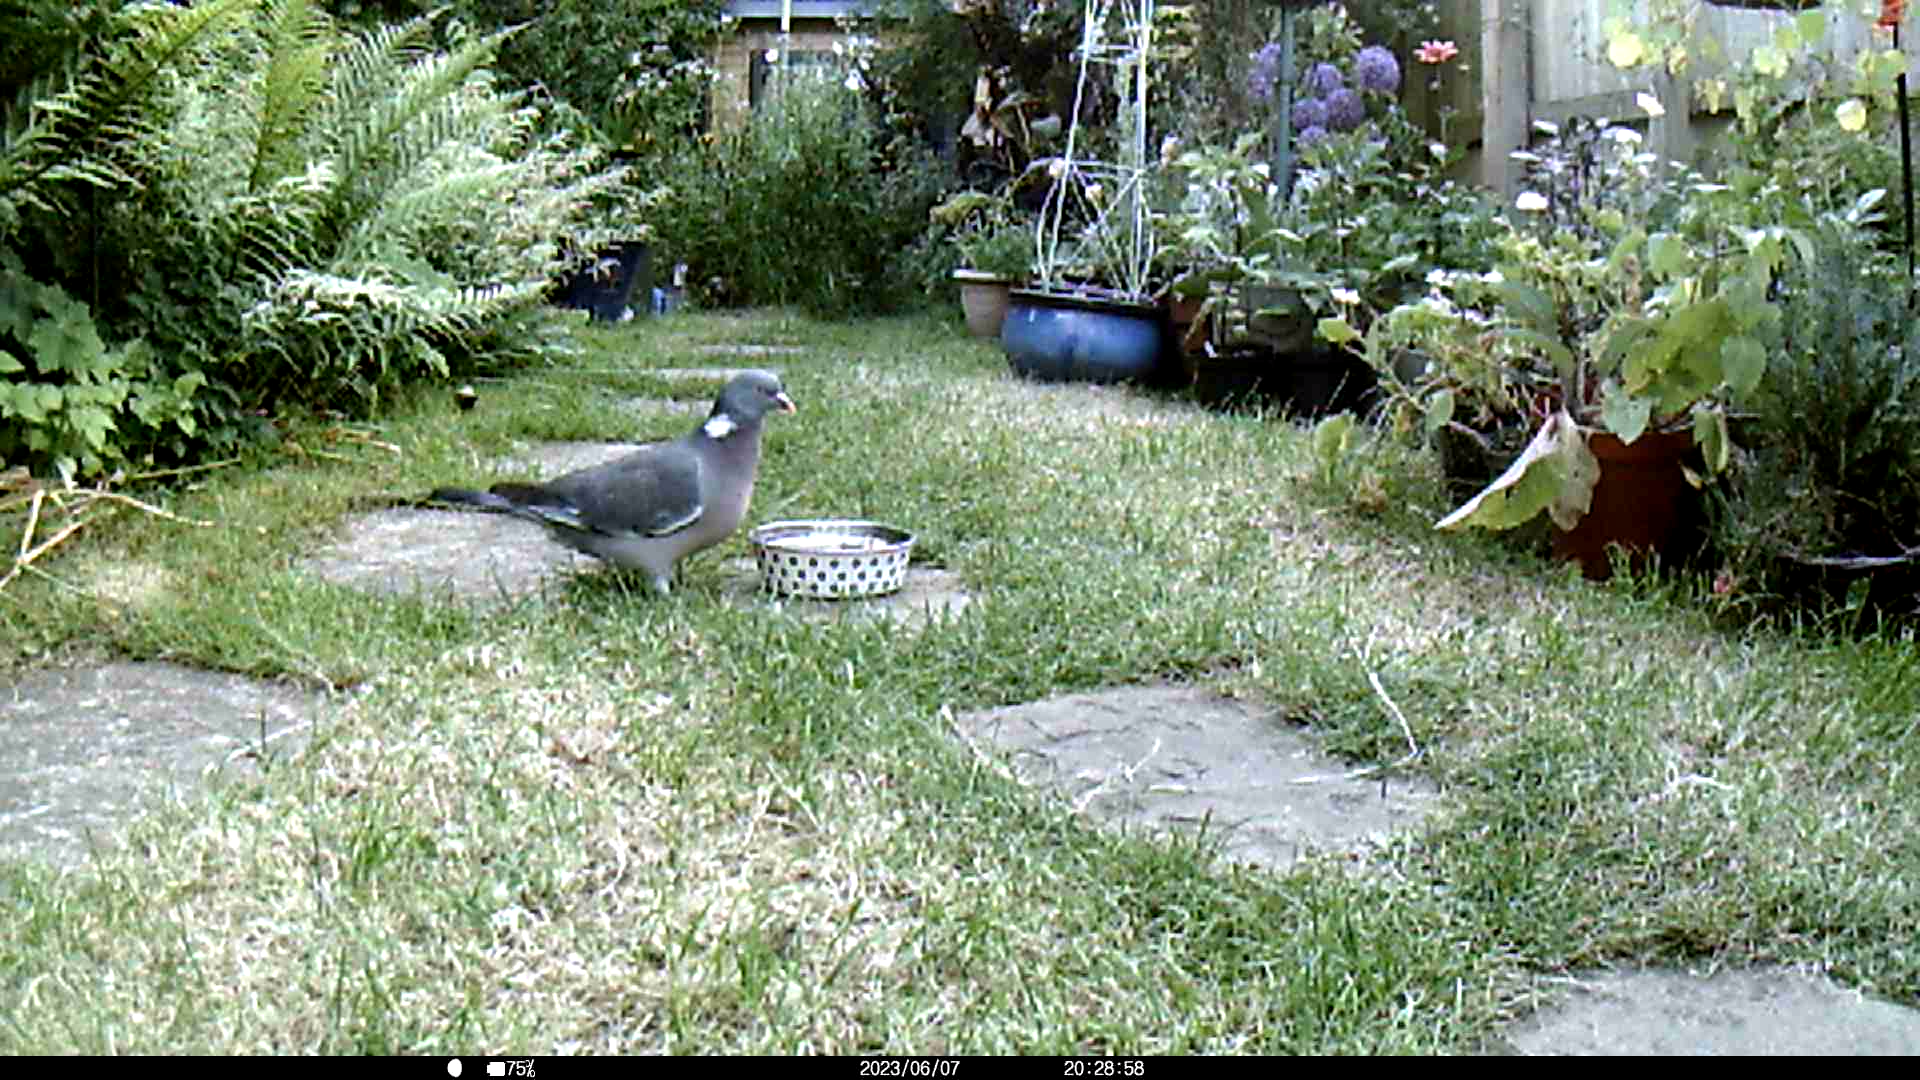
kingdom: Animalia
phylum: Chordata
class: Aves
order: Columbiformes
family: Columbidae
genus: Columba
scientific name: Columba palumbus
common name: Common wood pigeon
